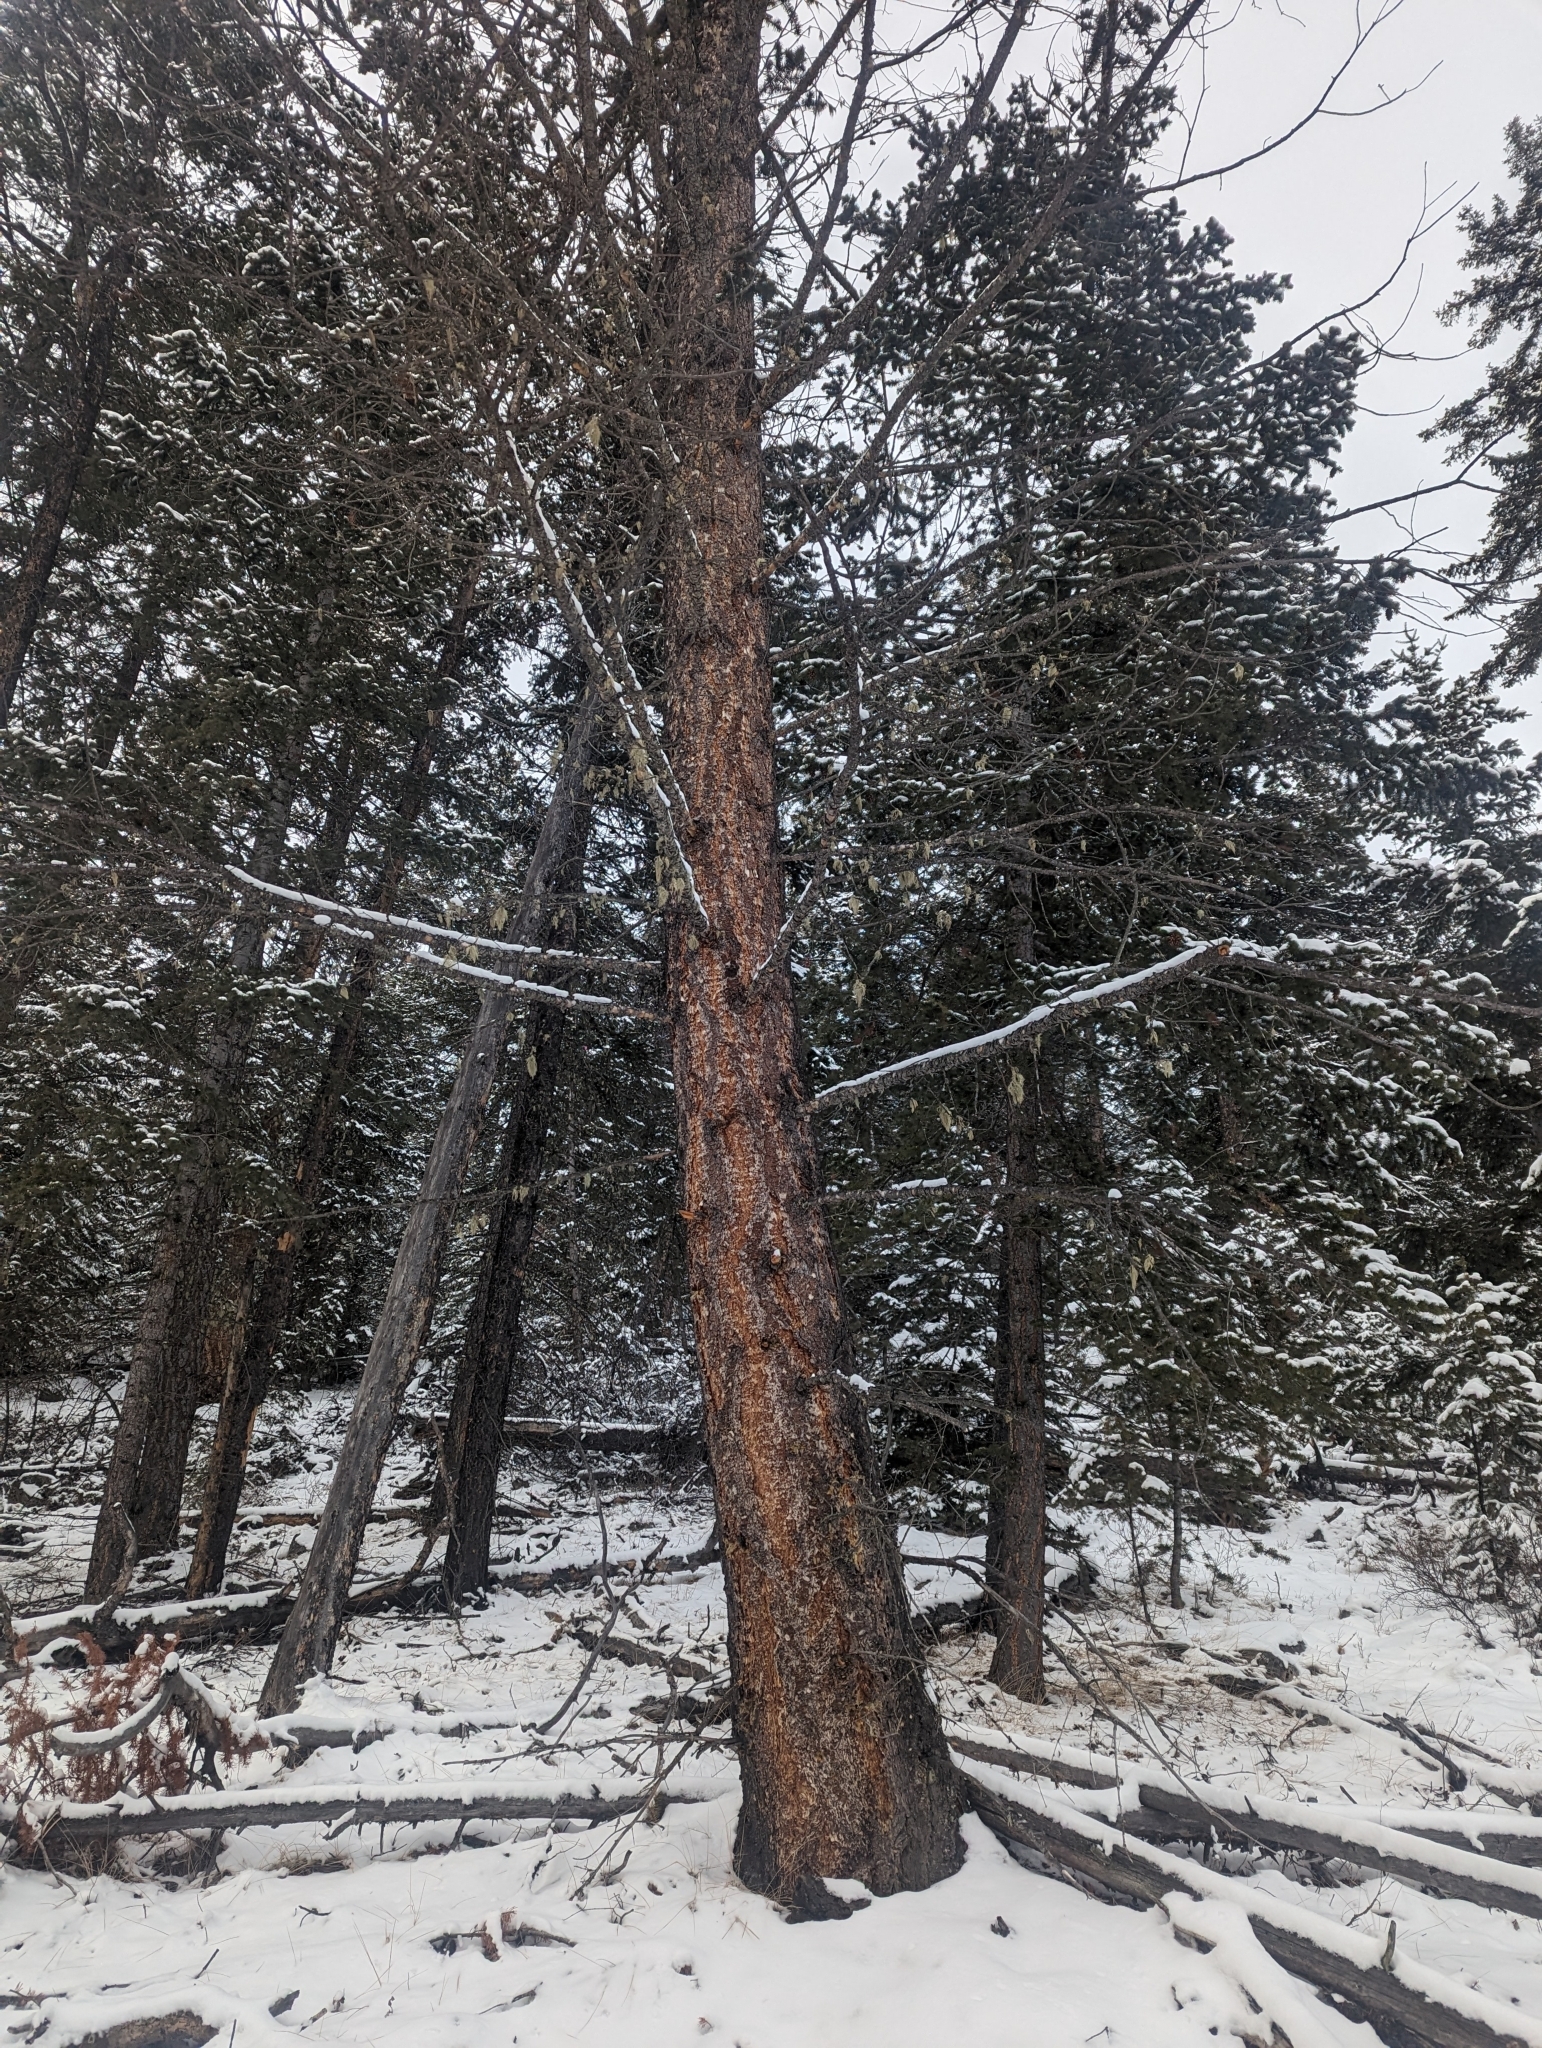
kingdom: Plantae
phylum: Tracheophyta
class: Pinopsida
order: Pinales
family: Pinaceae
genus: Pseudotsuga
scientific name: Pseudotsuga menziesii
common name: Douglas fir
